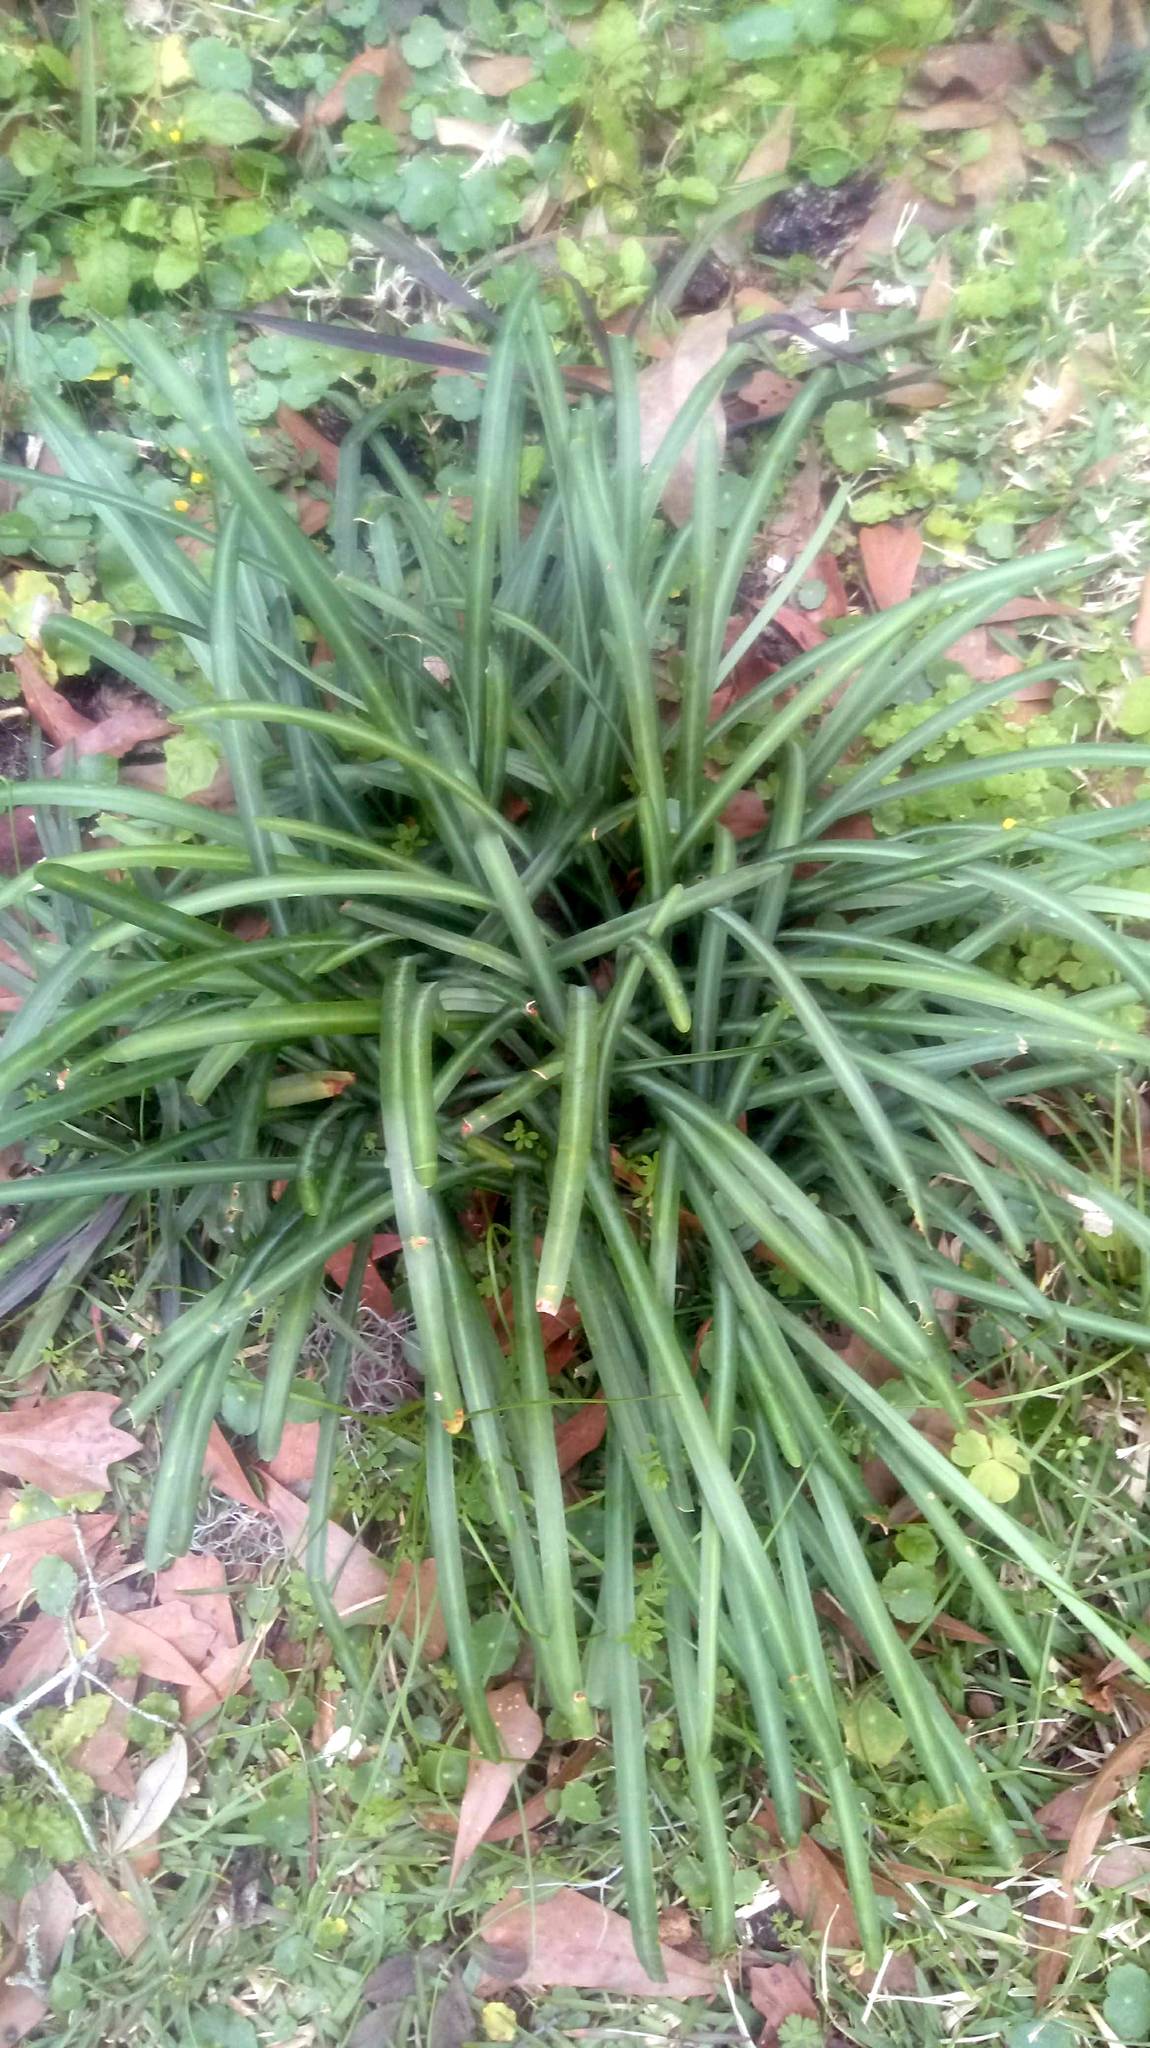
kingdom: Plantae
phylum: Tracheophyta
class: Liliopsida
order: Asparagales
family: Amaryllidaceae
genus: Lycoris
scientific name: Lycoris radiata
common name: Red spider lily
